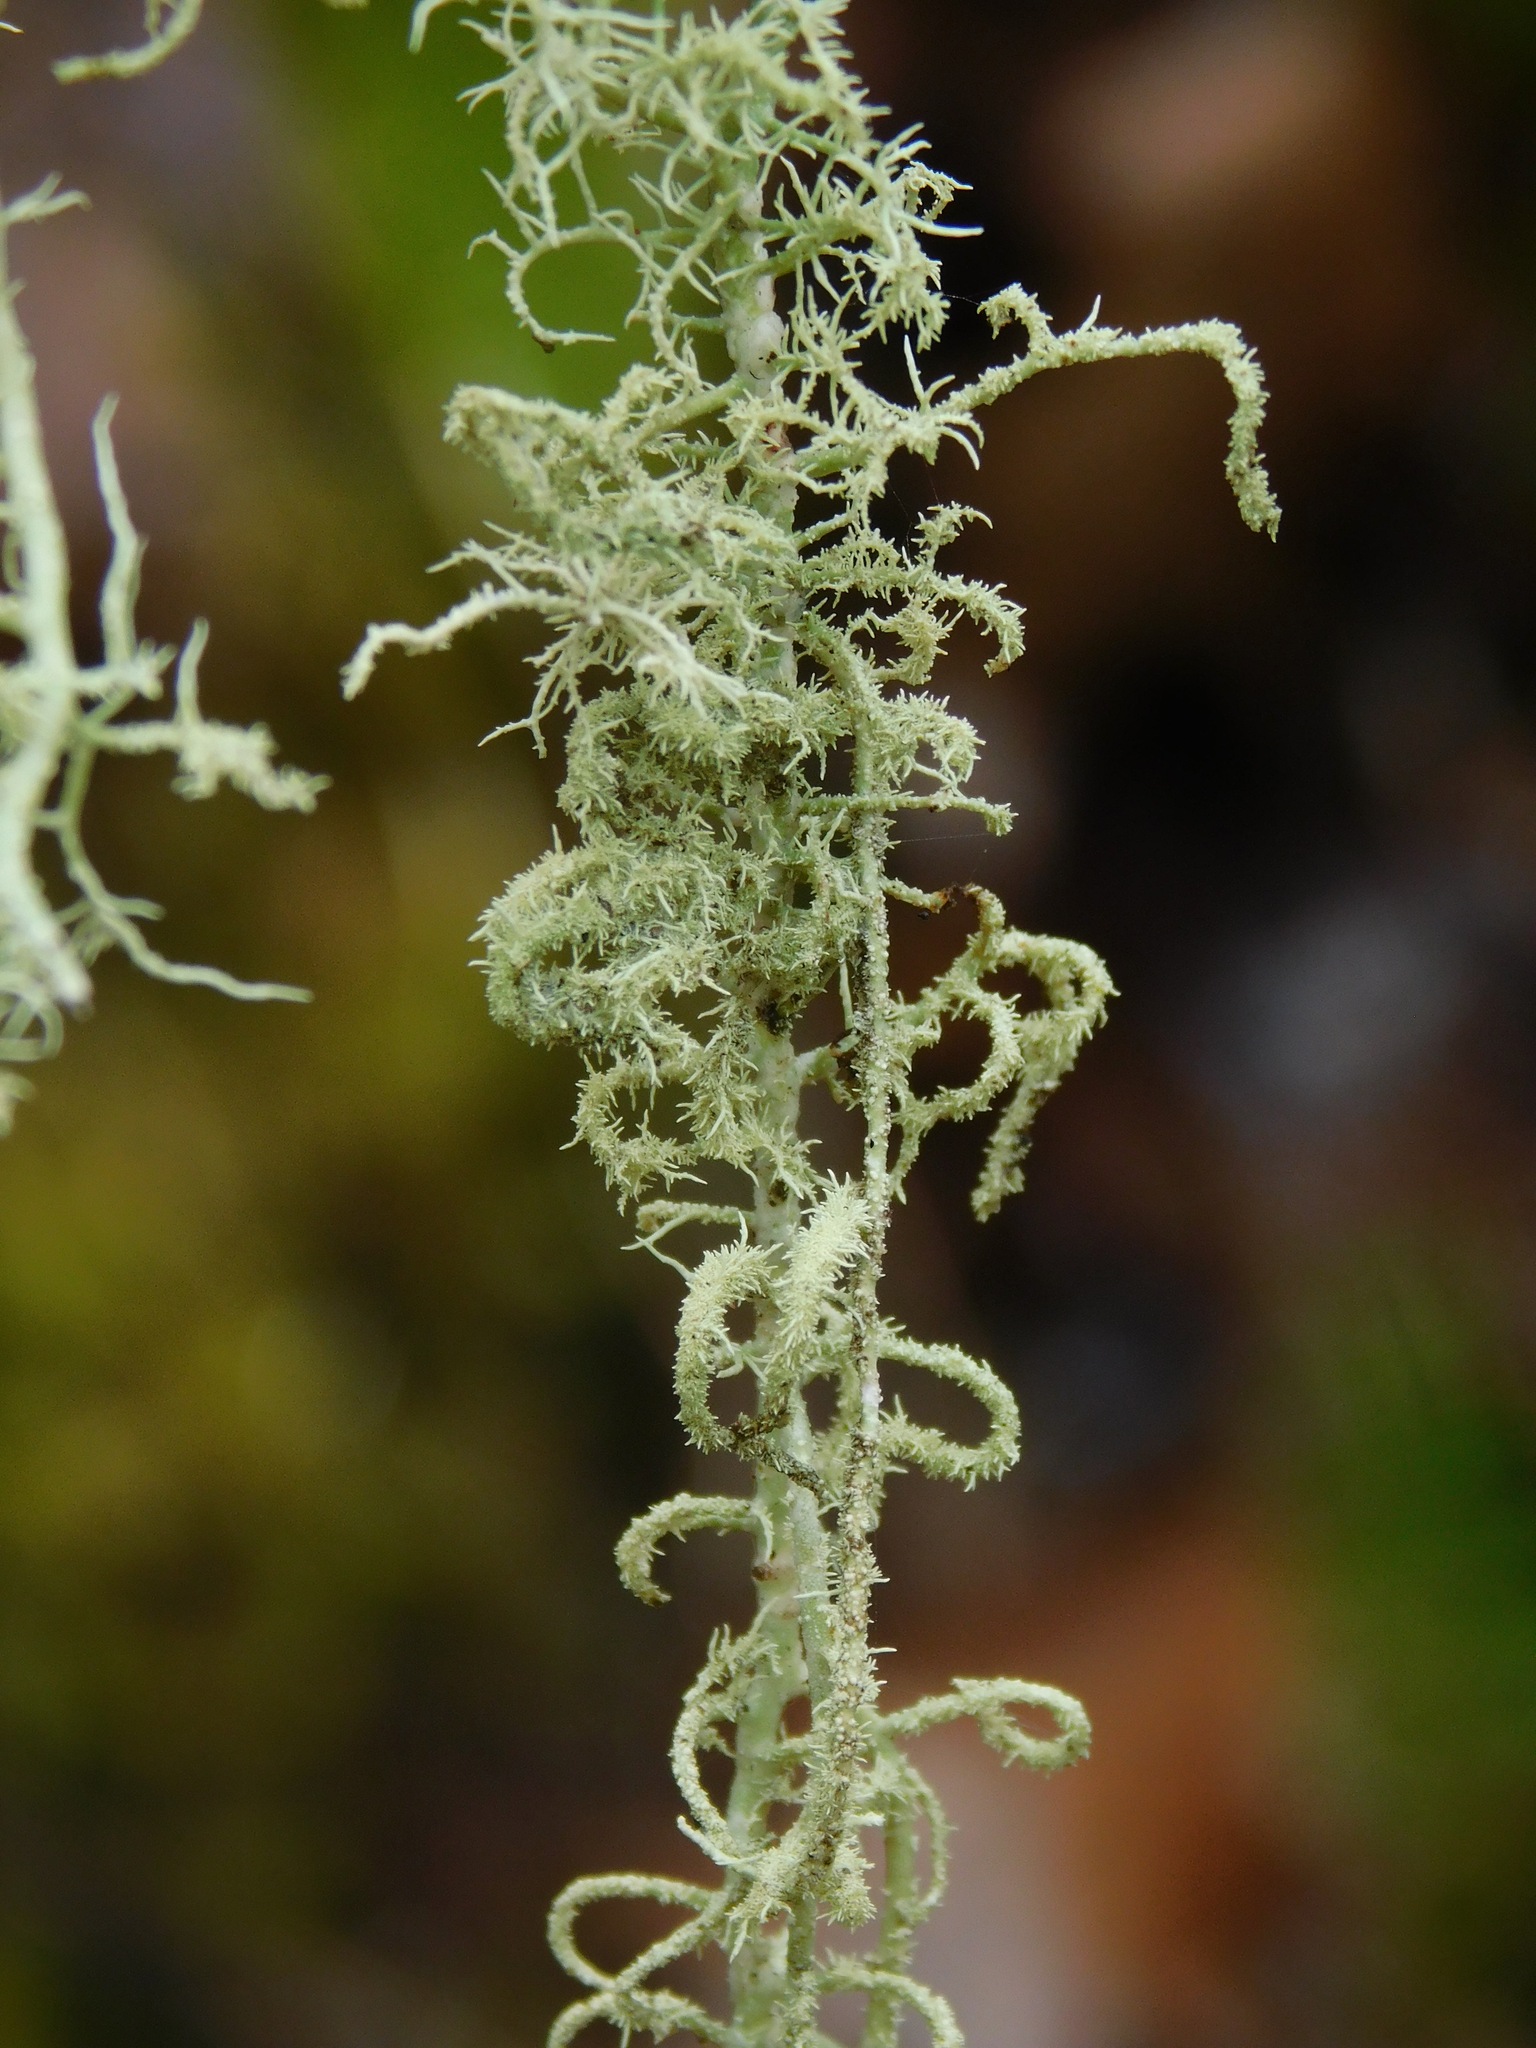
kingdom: Fungi
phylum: Ascomycota
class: Lecanoromycetes
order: Lecanorales
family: Parmeliaceae
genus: Usnea
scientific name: Usnea mutabilis
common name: Bloody beard
